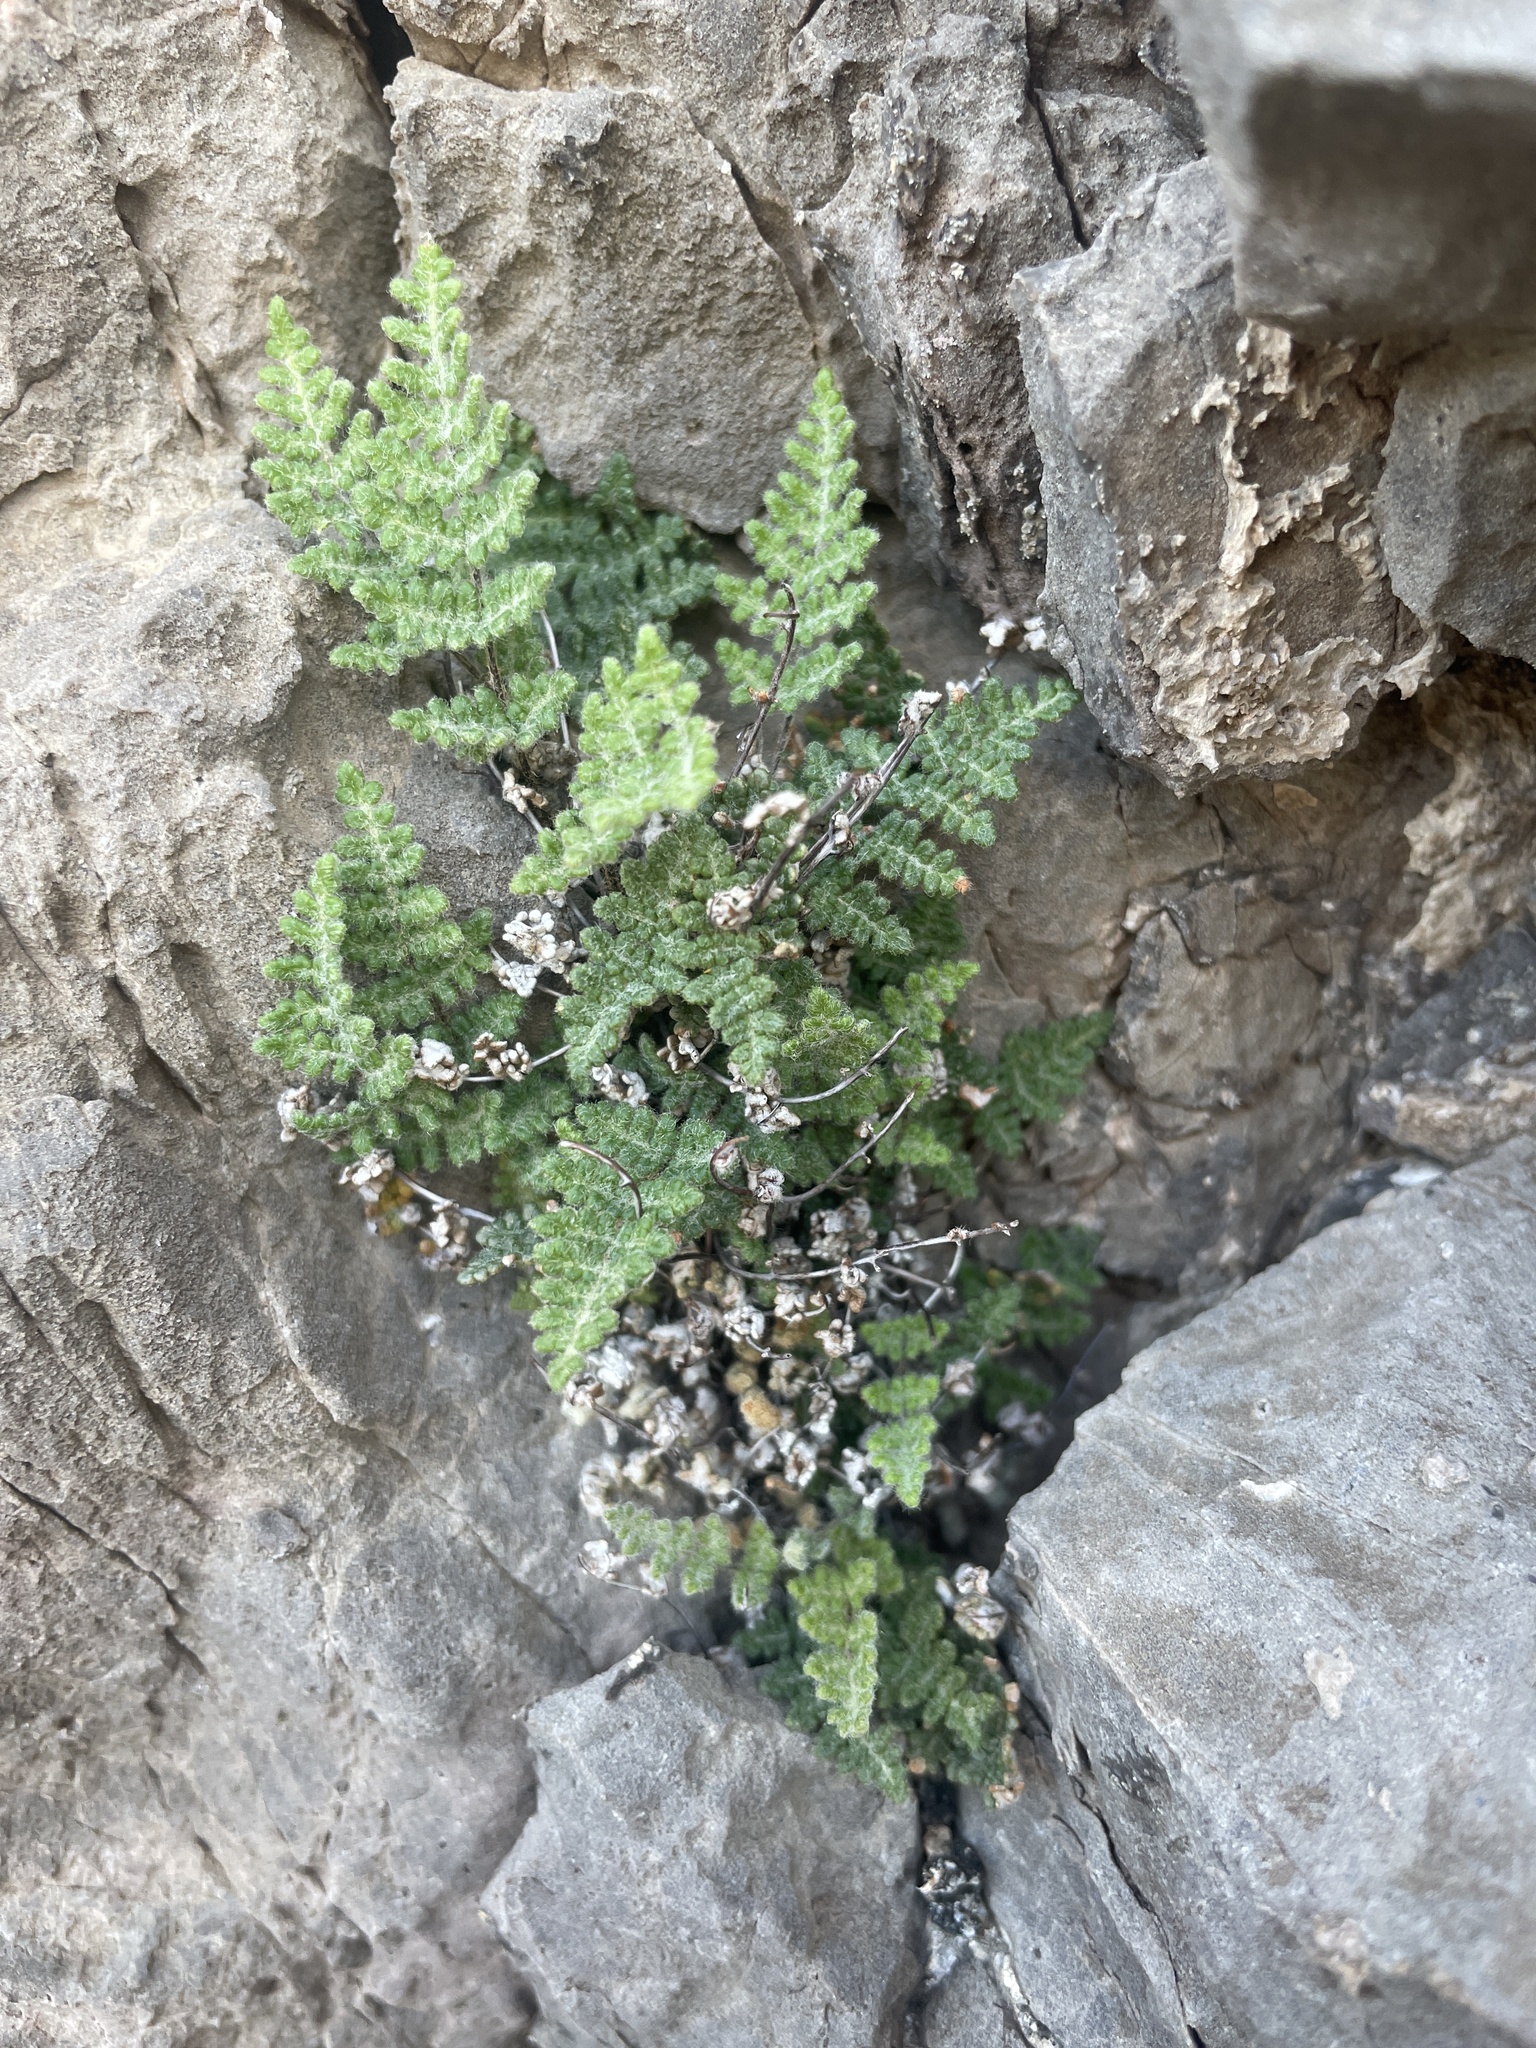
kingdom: Plantae
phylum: Tracheophyta
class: Polypodiopsida
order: Polypodiales
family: Pteridaceae
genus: Myriopteris
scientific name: Myriopteris gracilis
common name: Fee's lip fern
